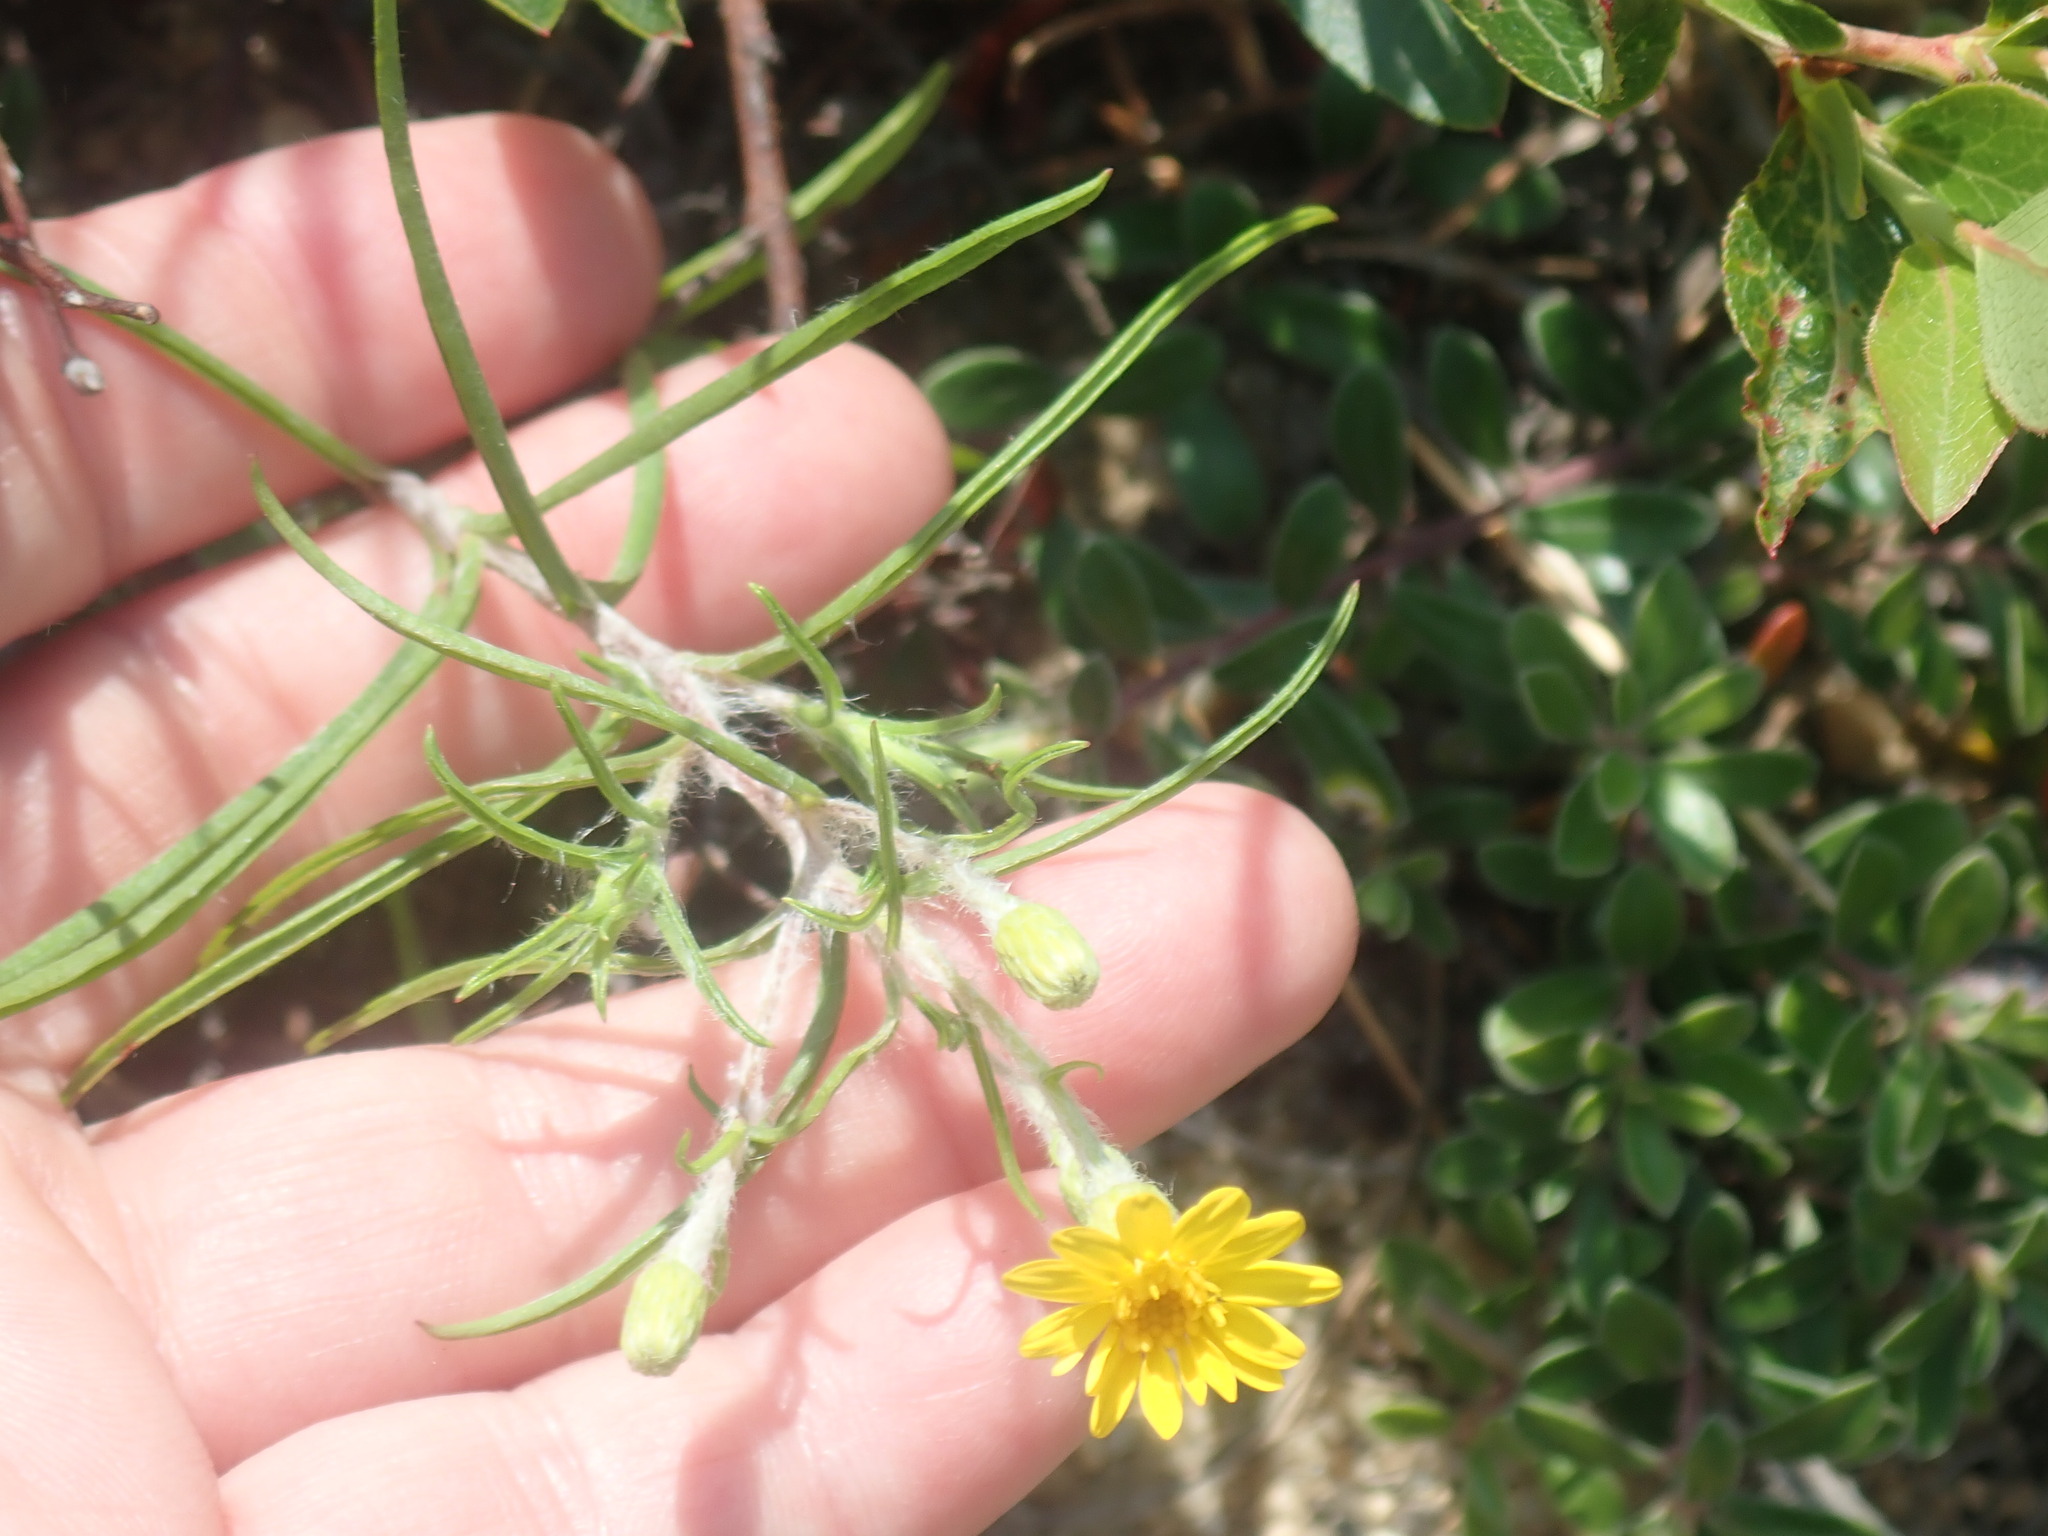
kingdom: Plantae
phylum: Tracheophyta
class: Magnoliopsida
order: Asterales
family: Asteraceae
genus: Pityopsis
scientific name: Pityopsis falcata
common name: Sickle-leaved goldenaster
